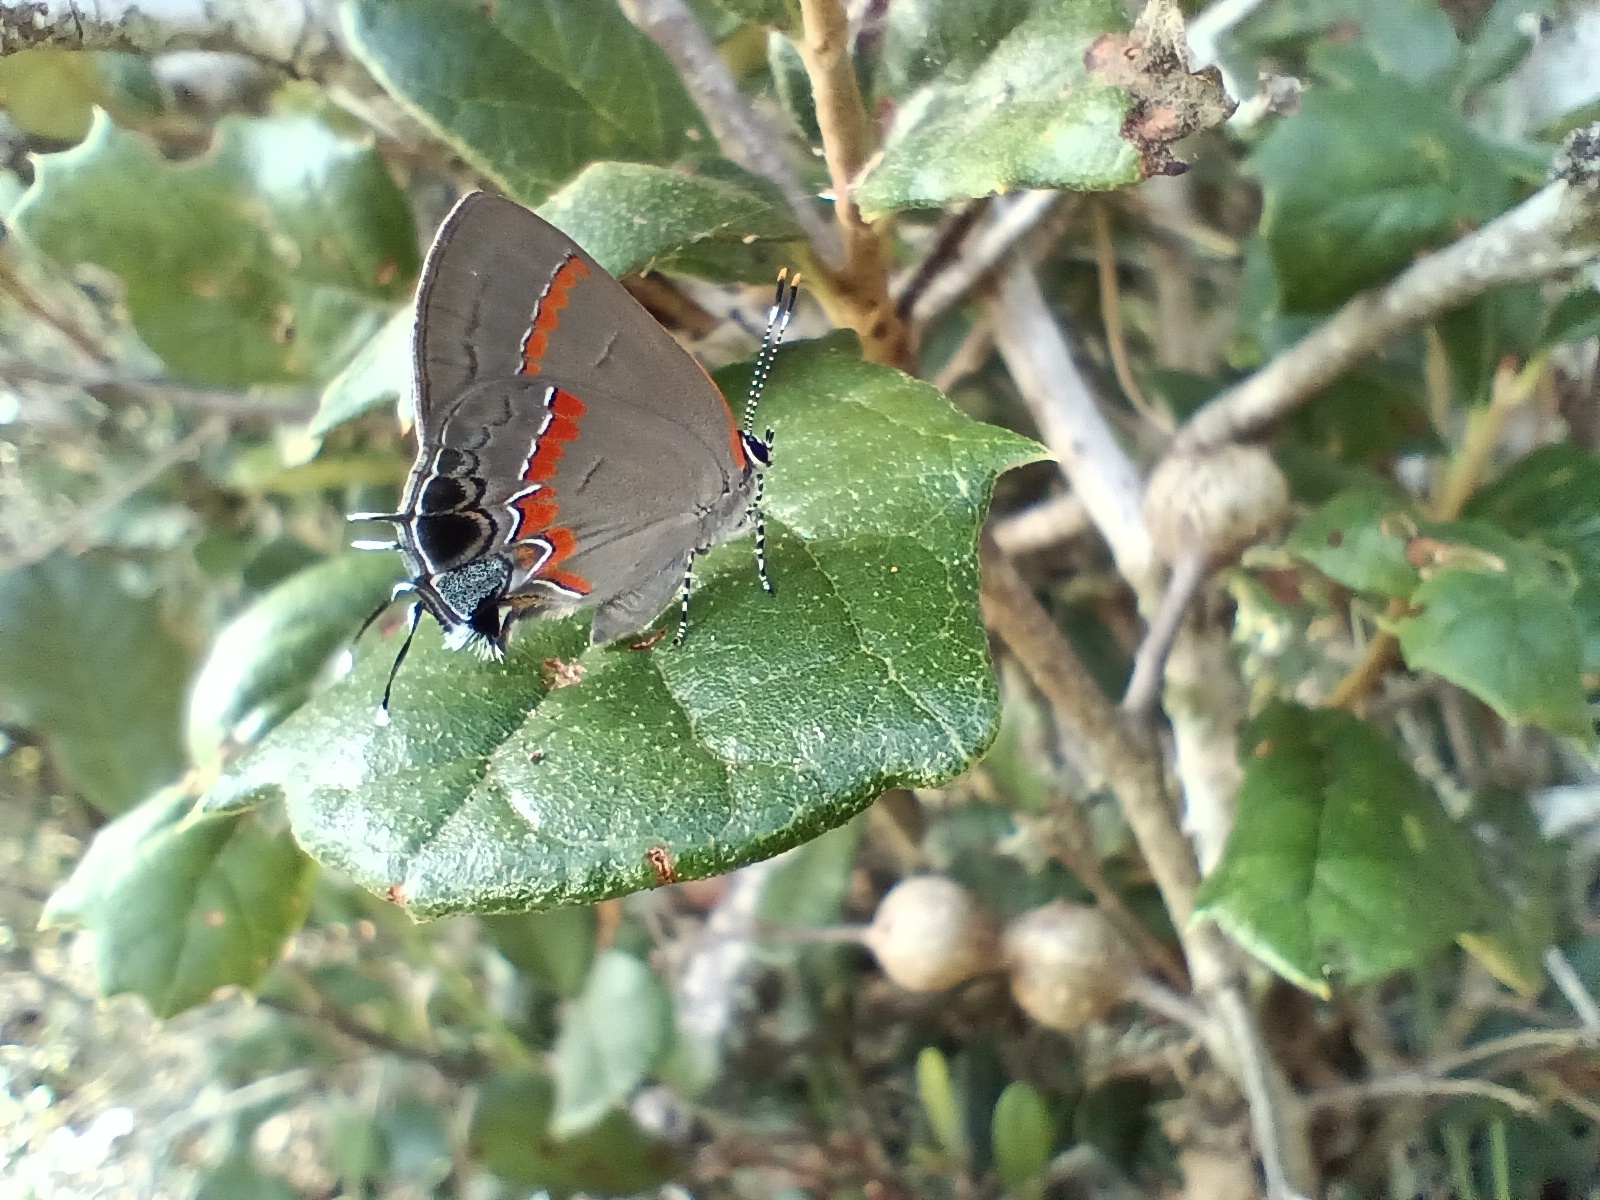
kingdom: Animalia
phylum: Arthropoda
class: Insecta
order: Lepidoptera
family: Lycaenidae
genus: Calycopis
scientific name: Calycopis cecrops
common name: Red-banded hairstreak
